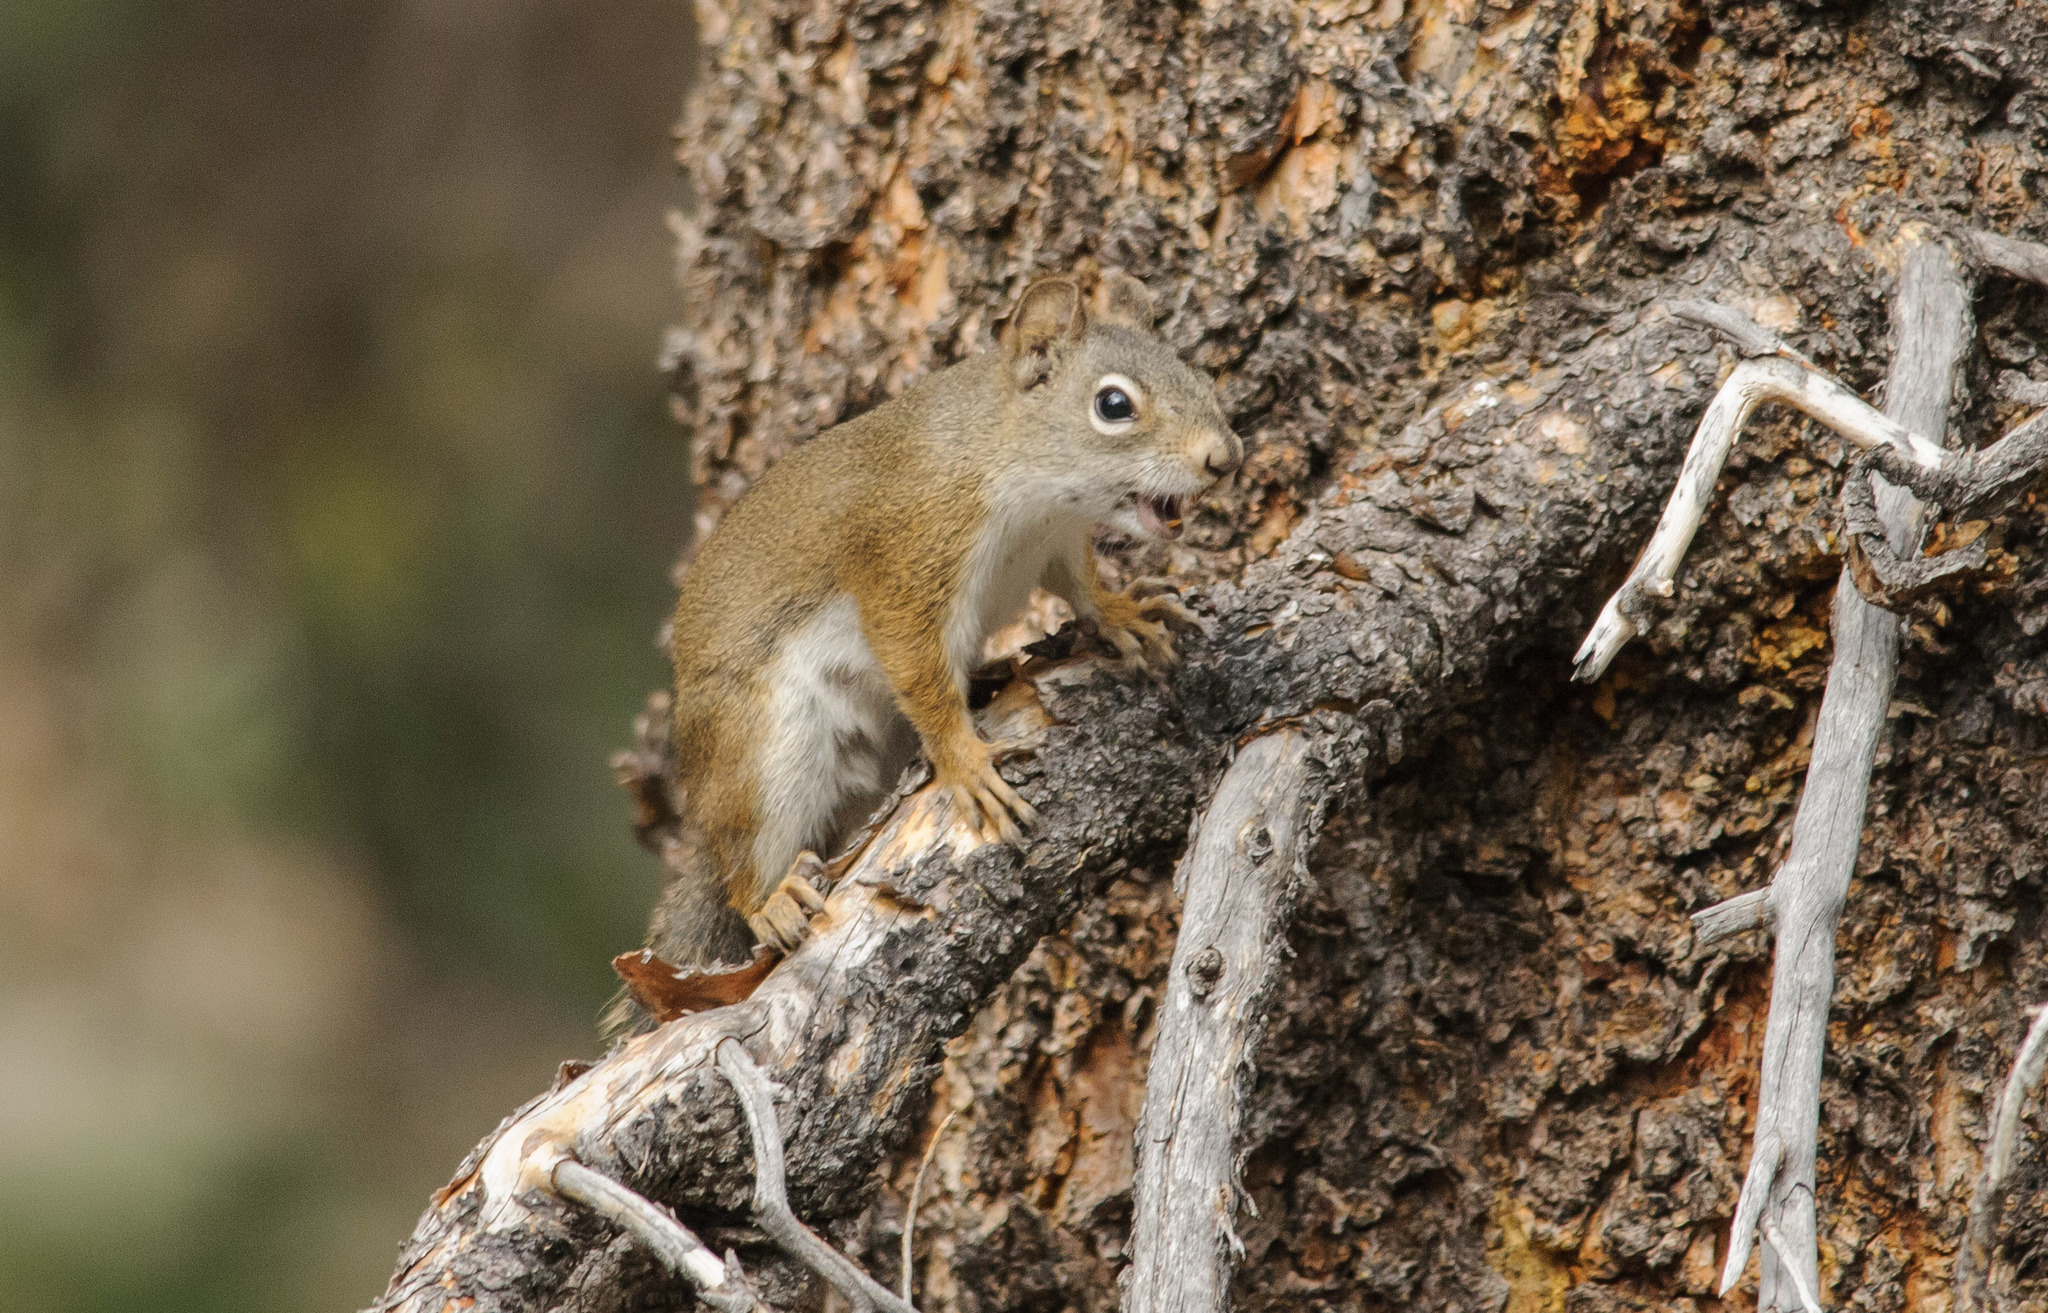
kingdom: Animalia
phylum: Chordata
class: Mammalia
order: Rodentia
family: Sciuridae
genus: Tamiasciurus
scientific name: Tamiasciurus hudsonicus
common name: Red squirrel
